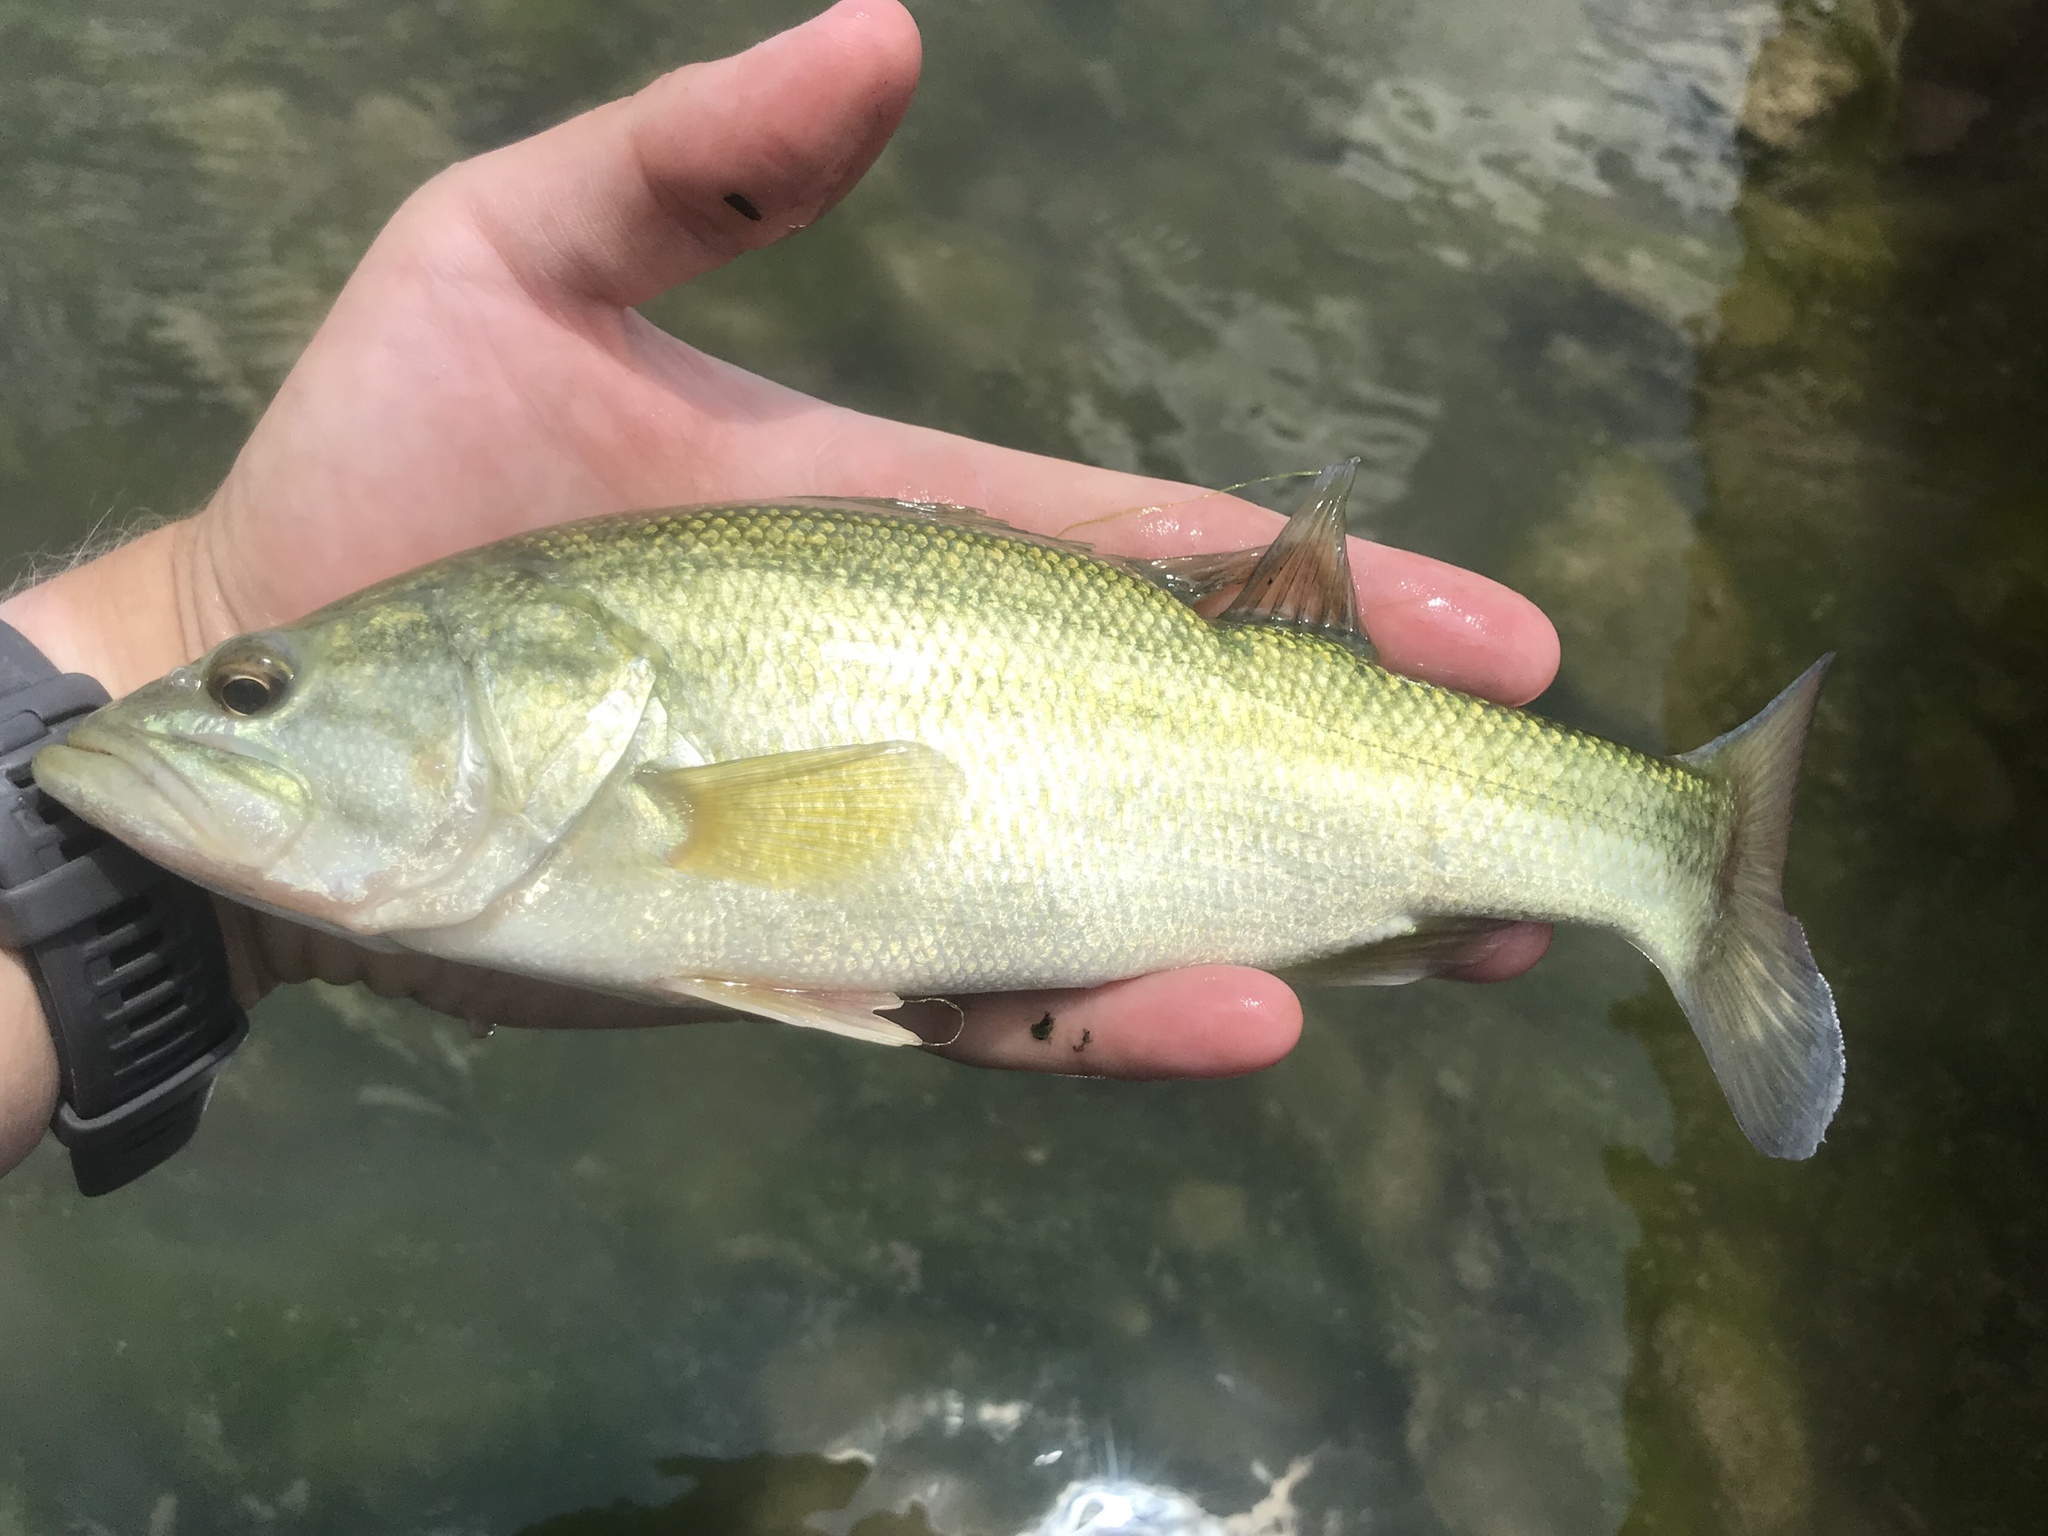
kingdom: Animalia
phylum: Chordata
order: Perciformes
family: Centrarchidae
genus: Micropterus
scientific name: Micropterus
